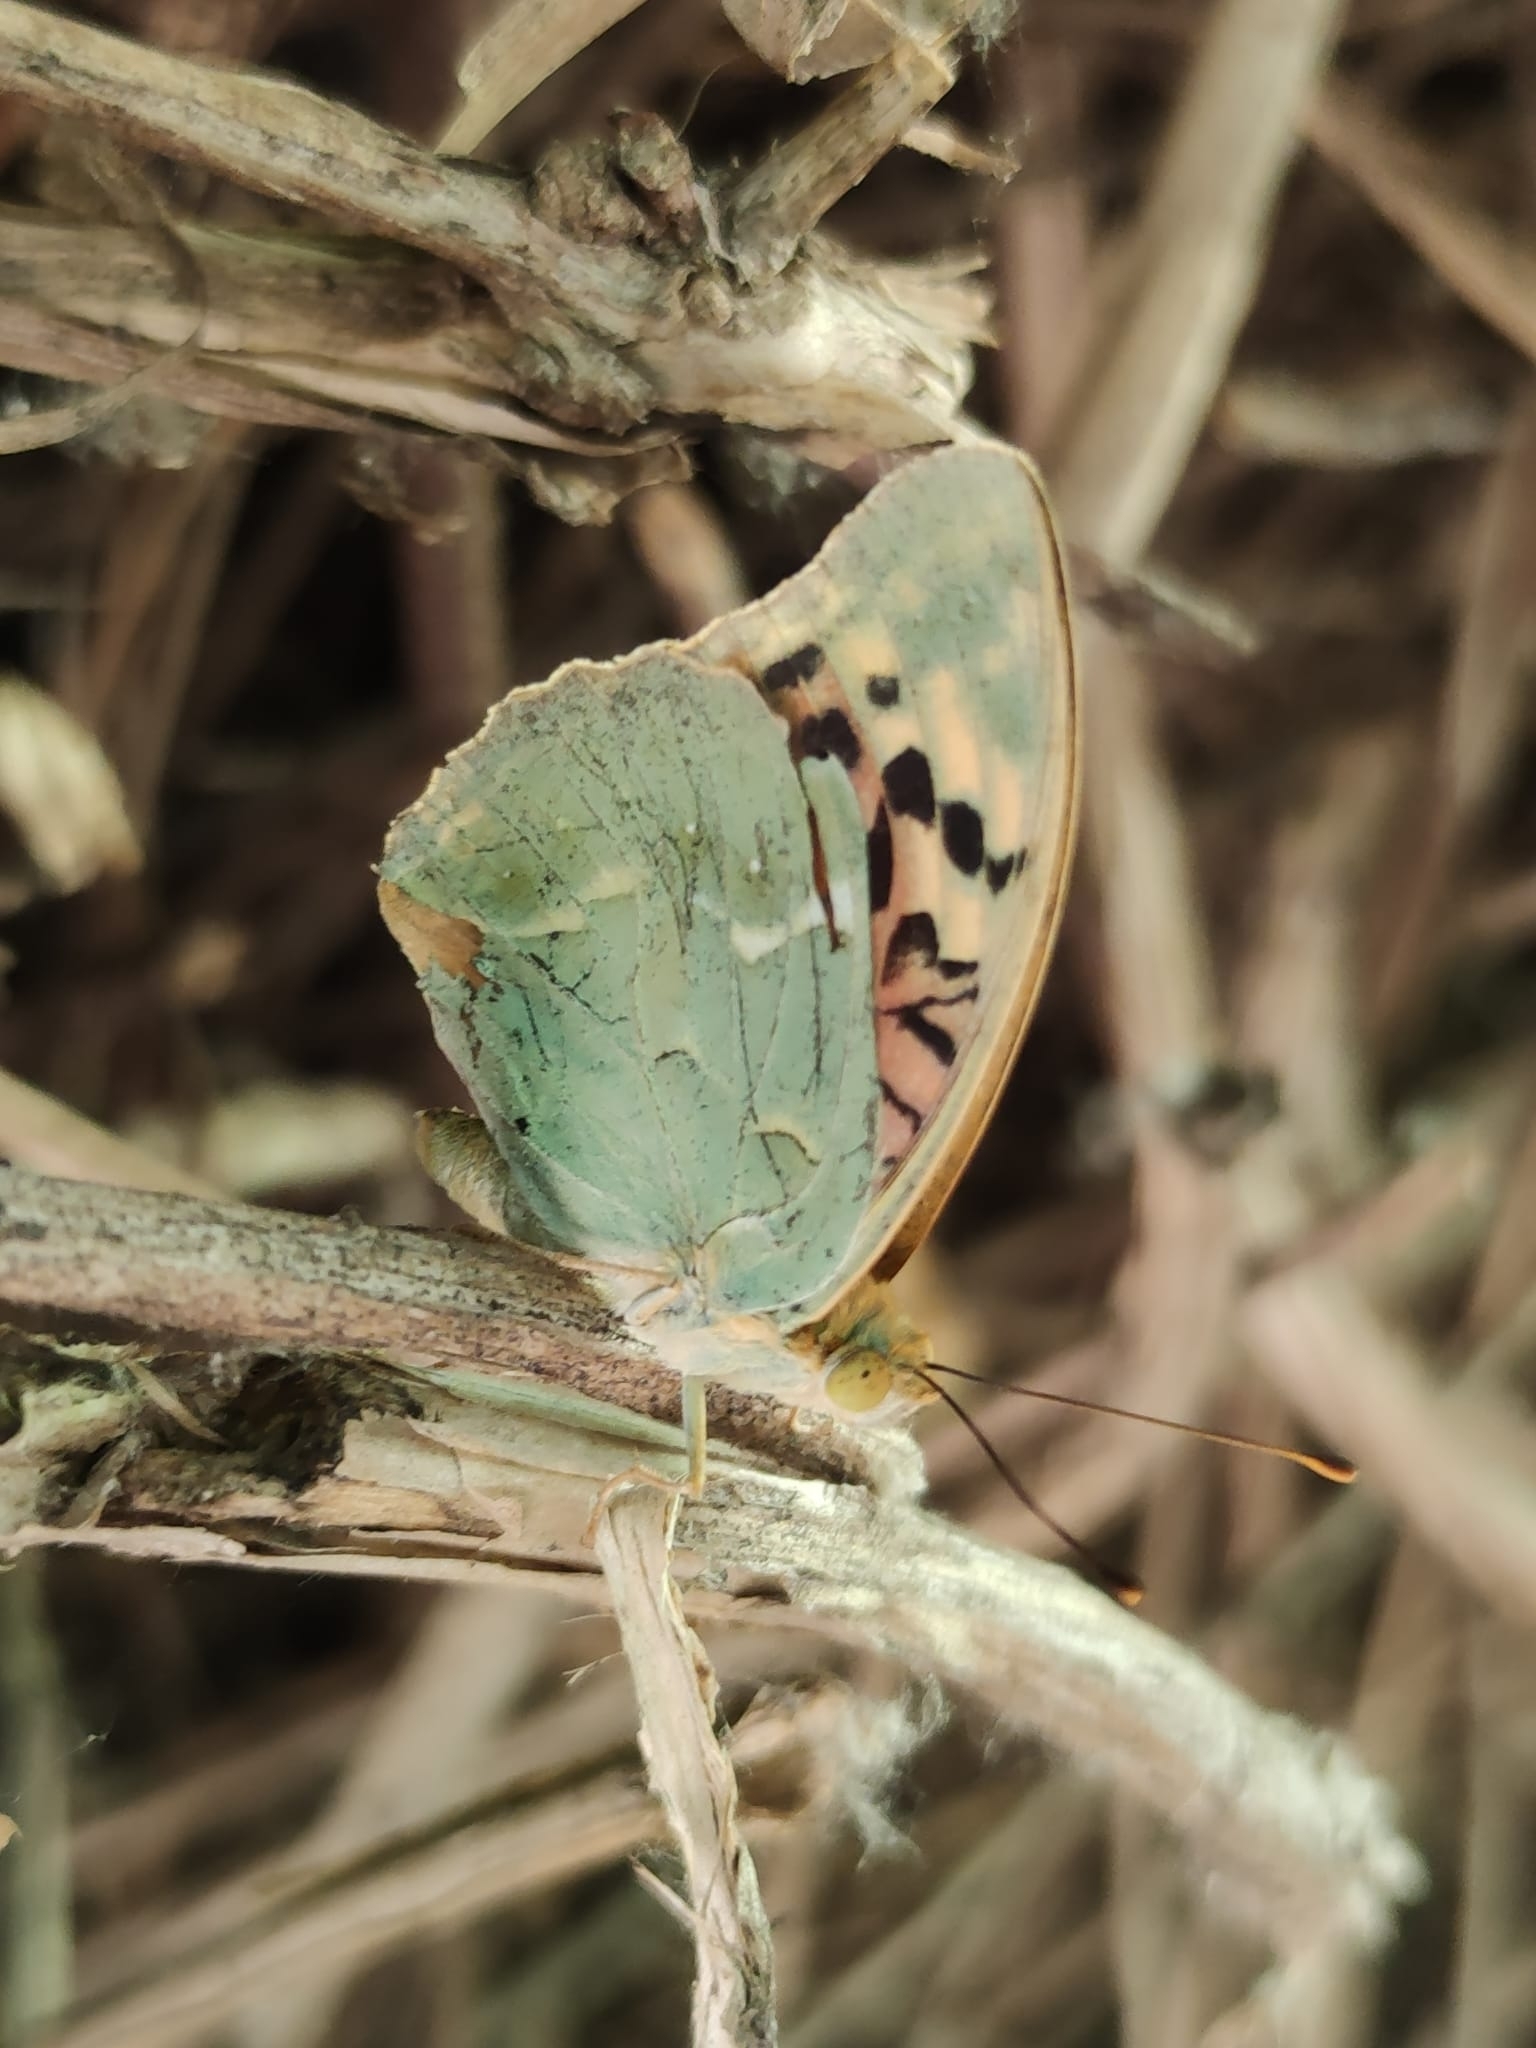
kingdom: Animalia
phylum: Arthropoda
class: Insecta
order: Lepidoptera
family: Nymphalidae
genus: Damora
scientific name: Damora pandora
